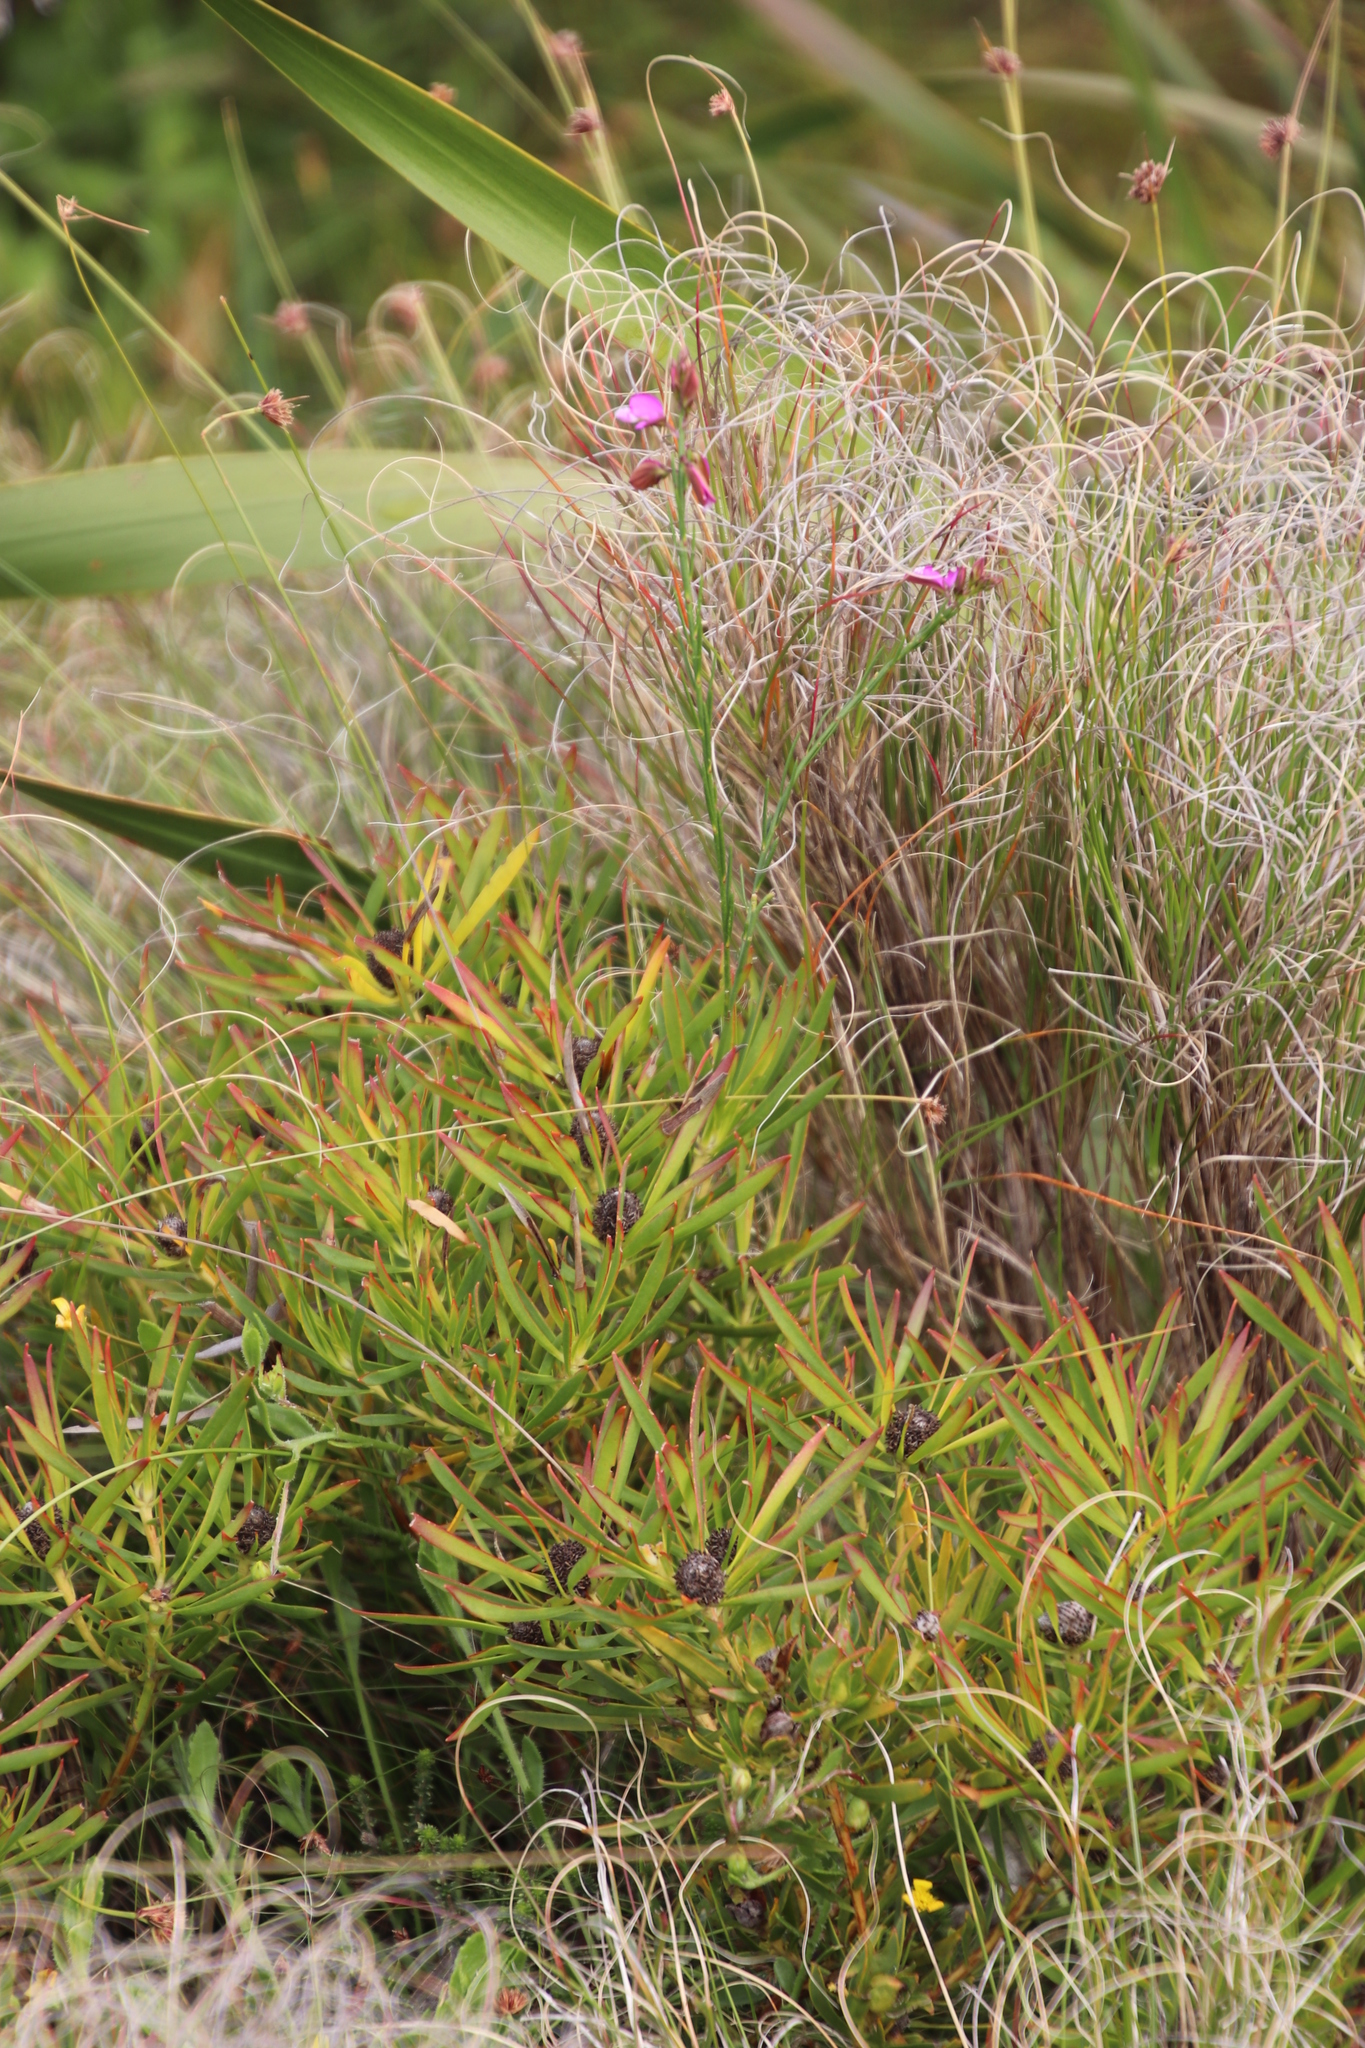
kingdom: Plantae
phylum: Tracheophyta
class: Magnoliopsida
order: Proteales
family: Proteaceae
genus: Leucadendron
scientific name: Leucadendron salignum
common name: Common sunshine conebush
